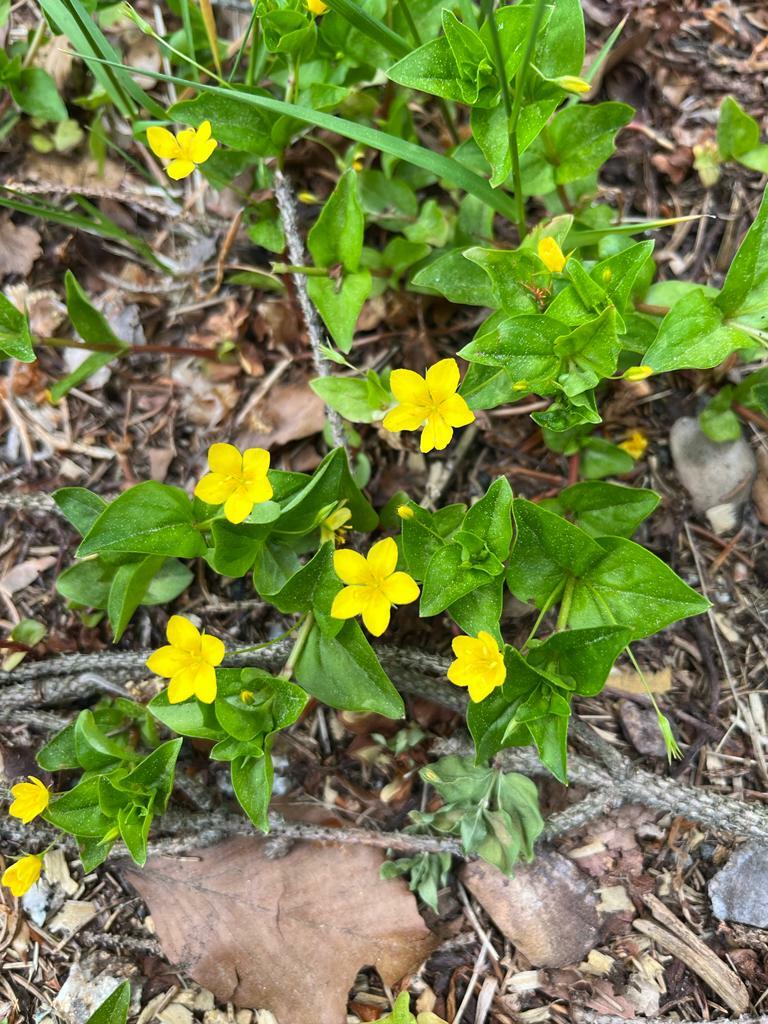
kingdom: Plantae
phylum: Tracheophyta
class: Magnoliopsida
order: Ericales
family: Primulaceae
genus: Lysimachia
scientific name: Lysimachia nemorum
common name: Yellow pimpernel
